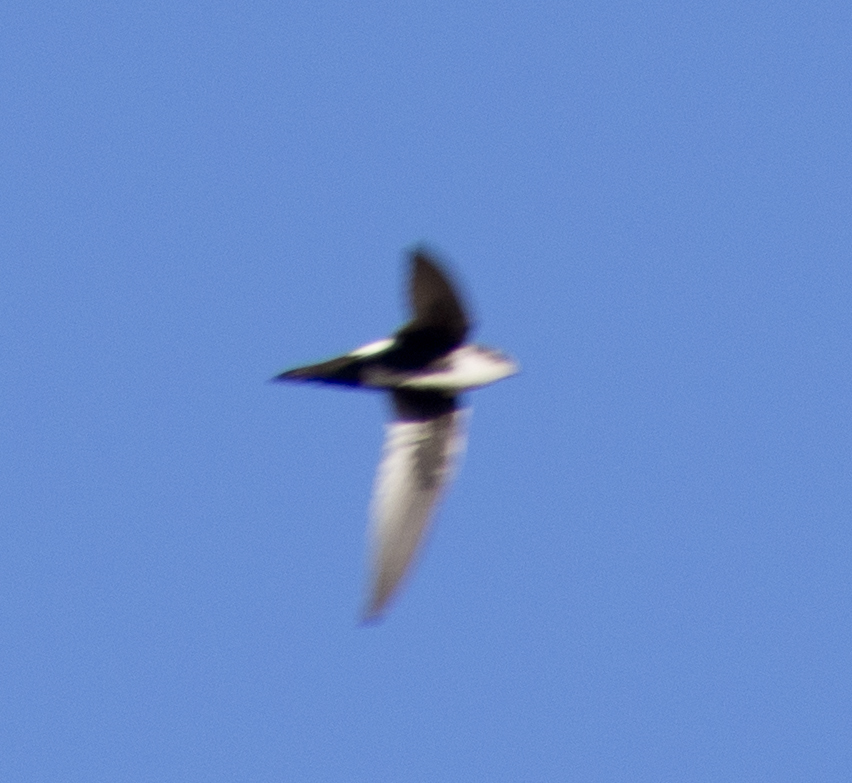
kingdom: Animalia
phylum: Chordata
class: Aves
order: Apodiformes
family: Apodidae
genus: Aeronautes
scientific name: Aeronautes saxatalis
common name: White-throated swift
